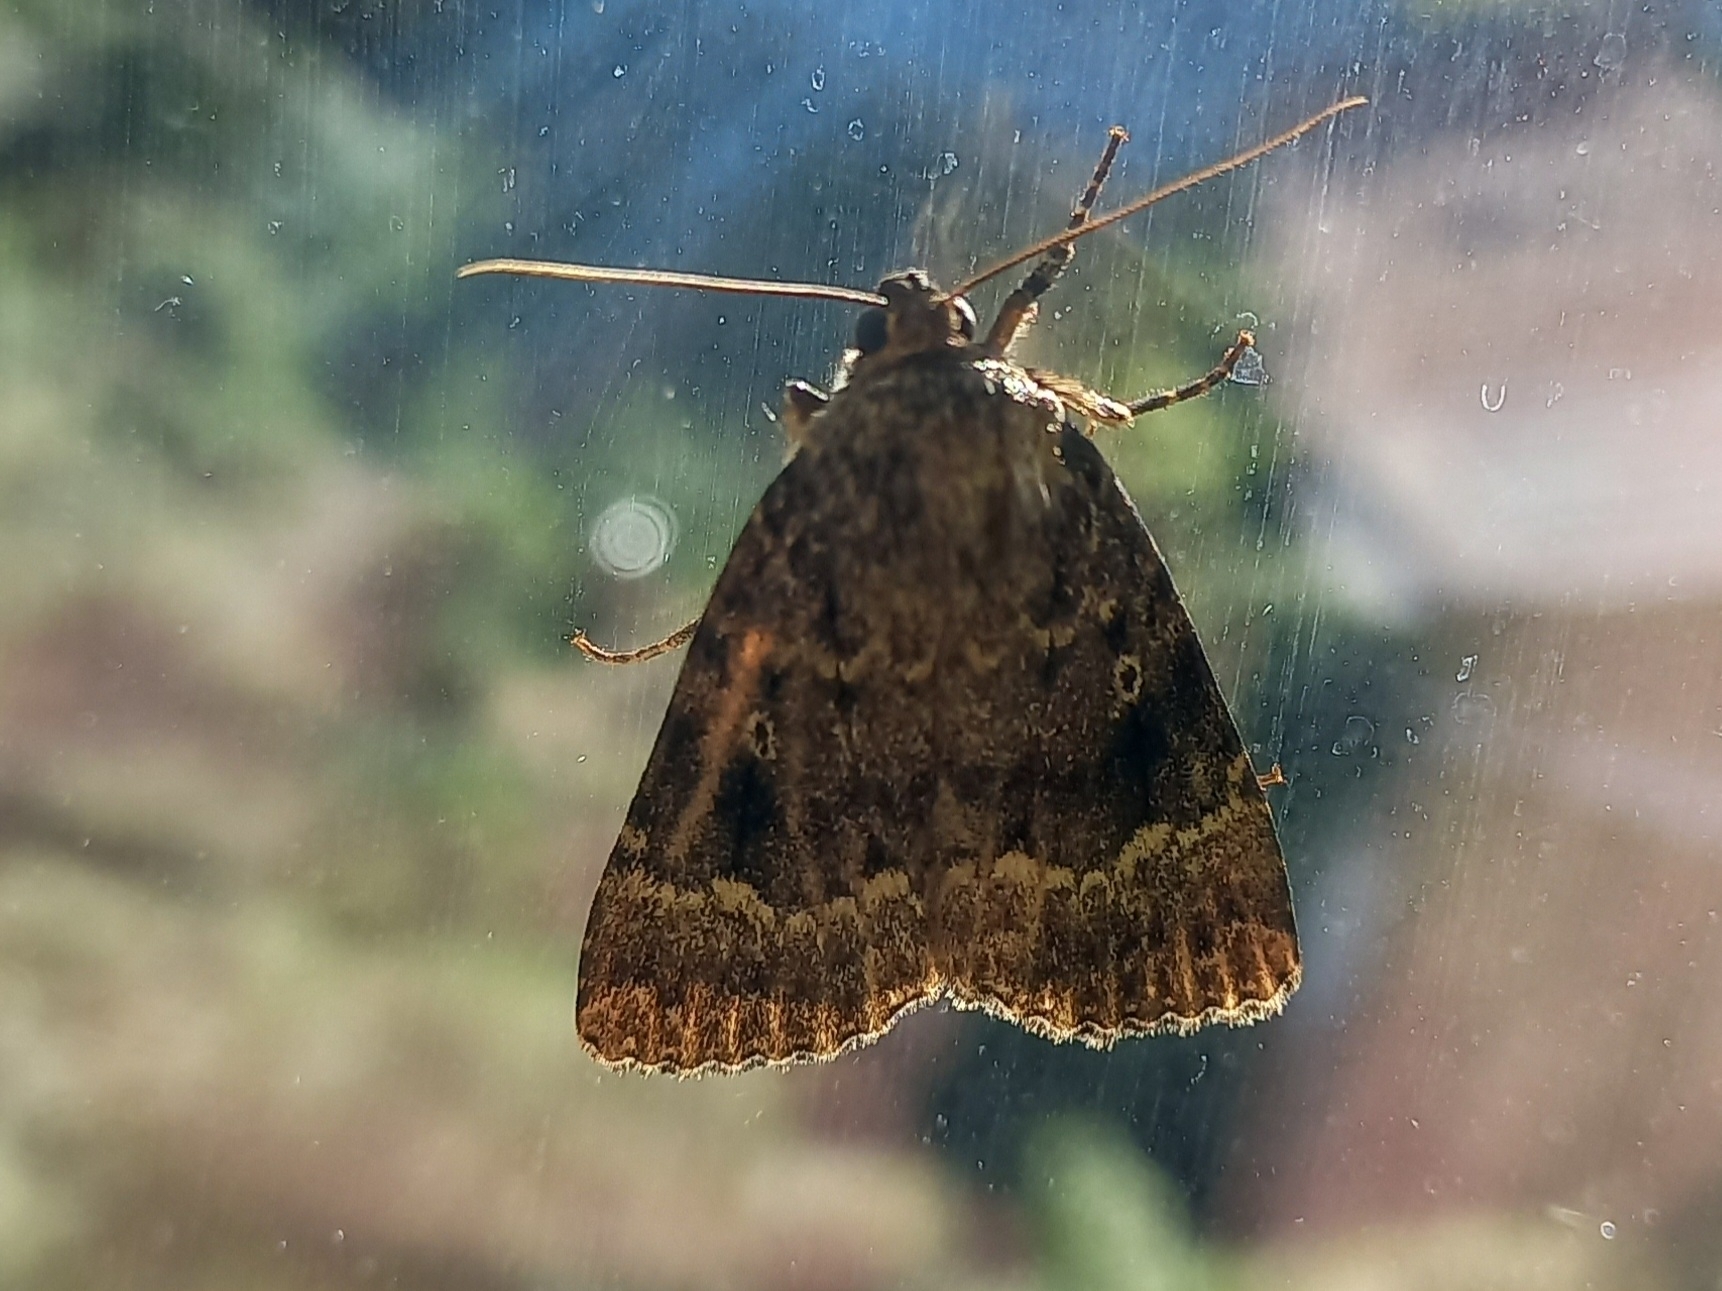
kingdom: Animalia
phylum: Arthropoda
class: Insecta
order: Lepidoptera
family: Noctuidae
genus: Amphipyra
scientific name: Amphipyra pyramidea
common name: Copper underwing
